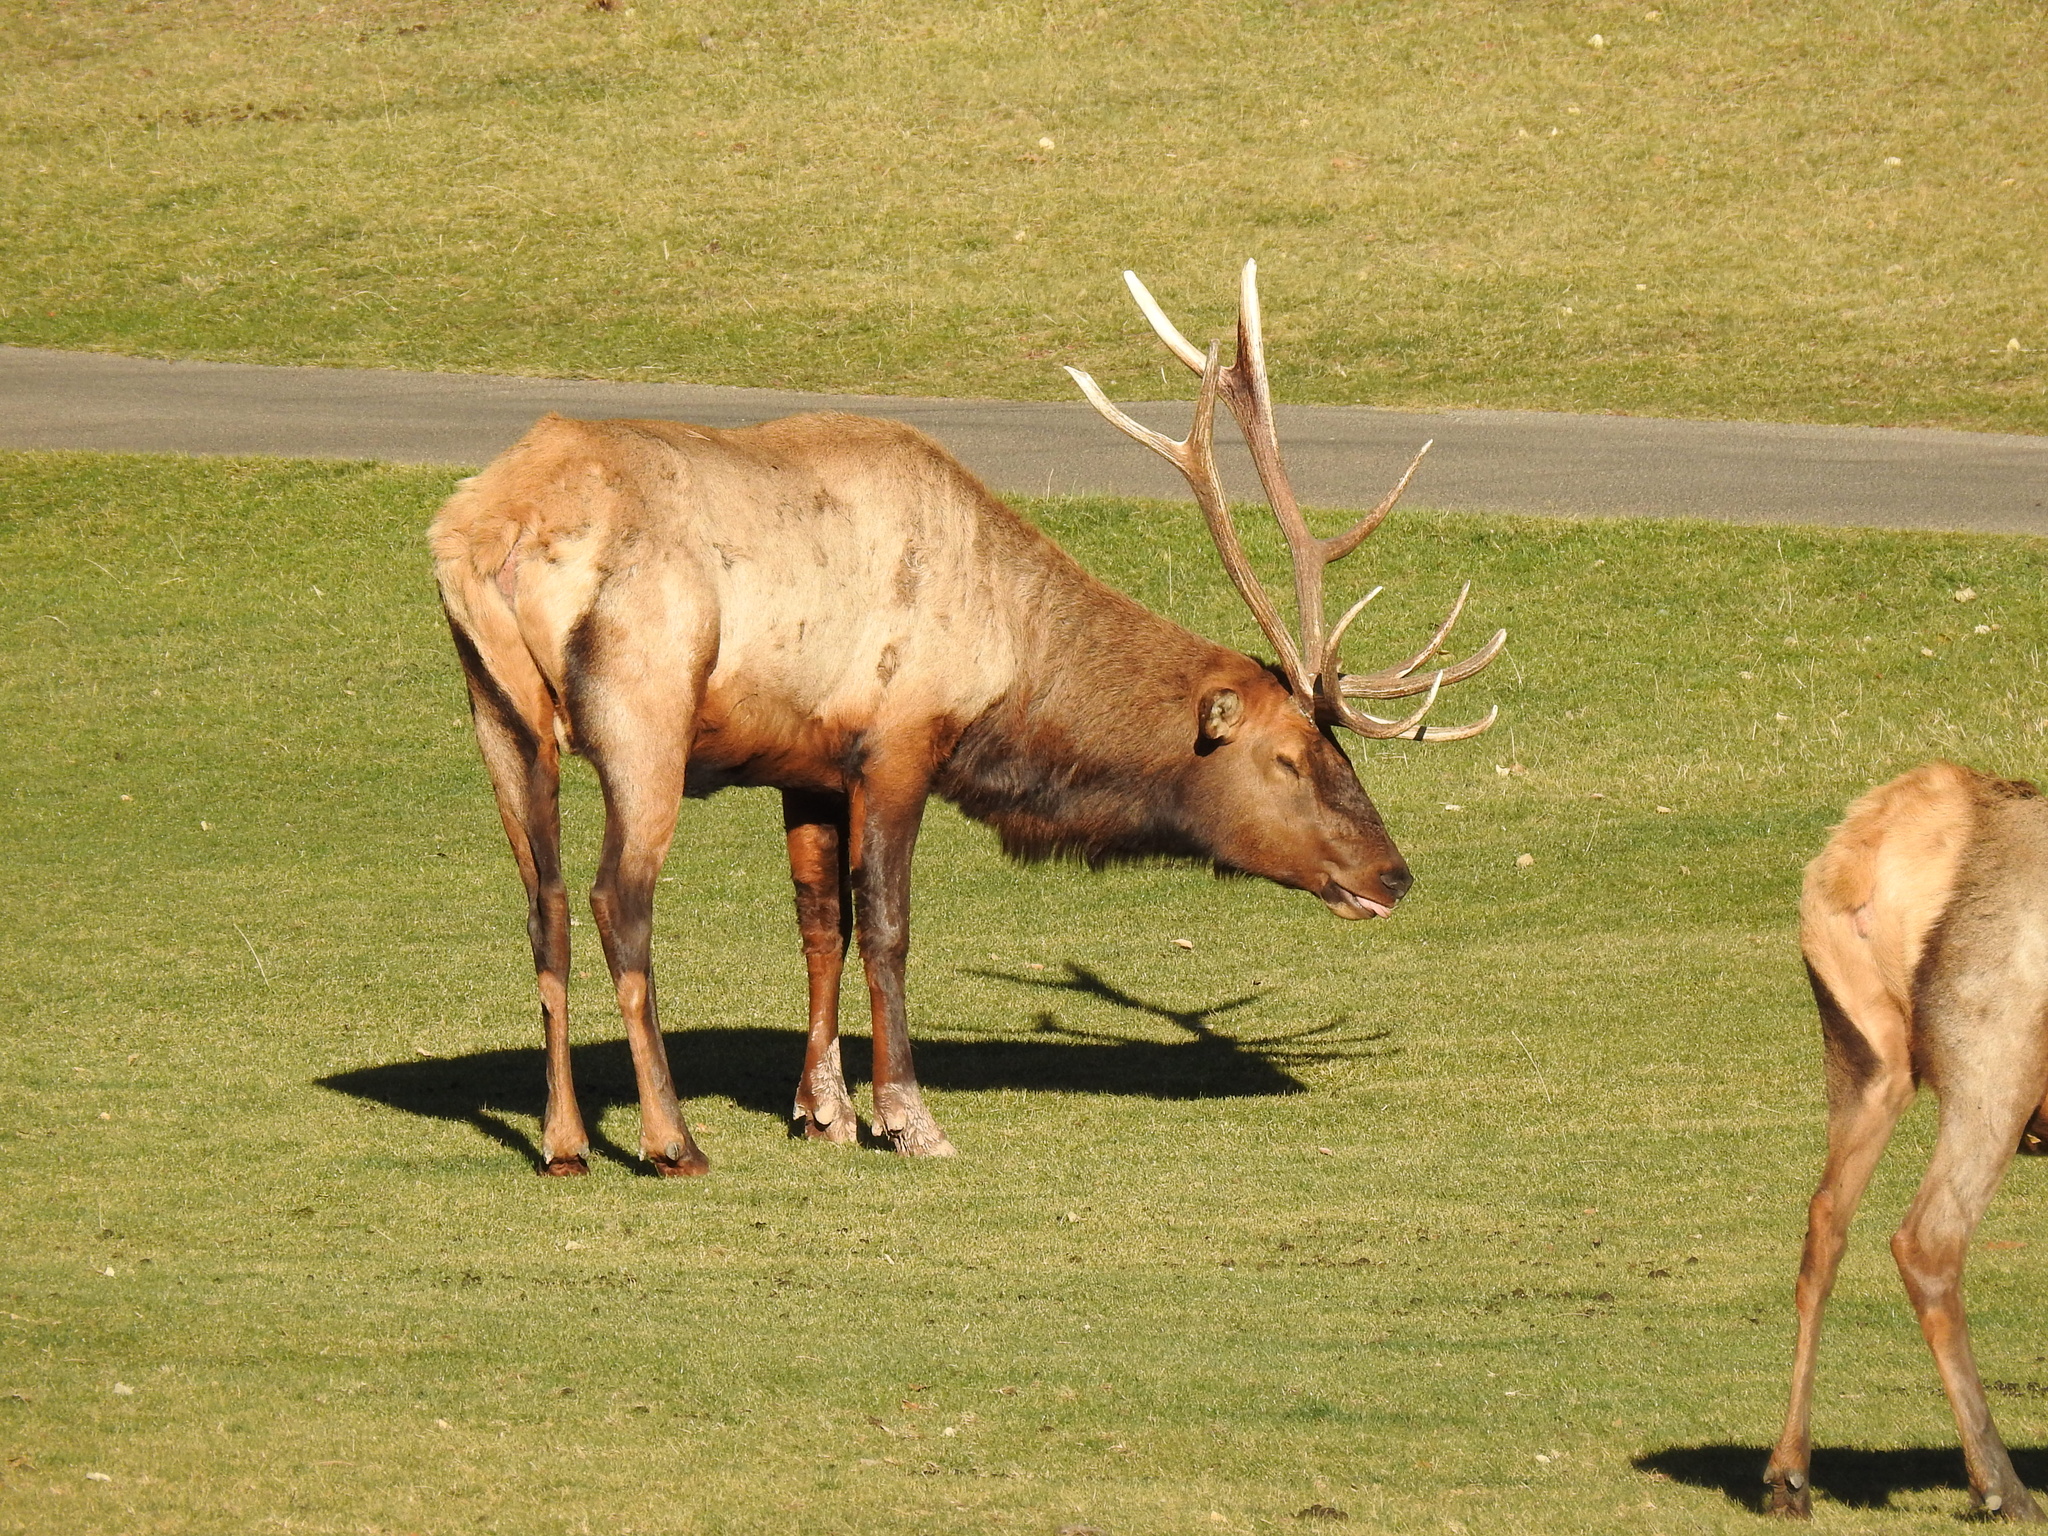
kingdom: Animalia
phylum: Chordata
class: Mammalia
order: Artiodactyla
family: Cervidae
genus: Cervus
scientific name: Cervus elaphus
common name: Red deer
